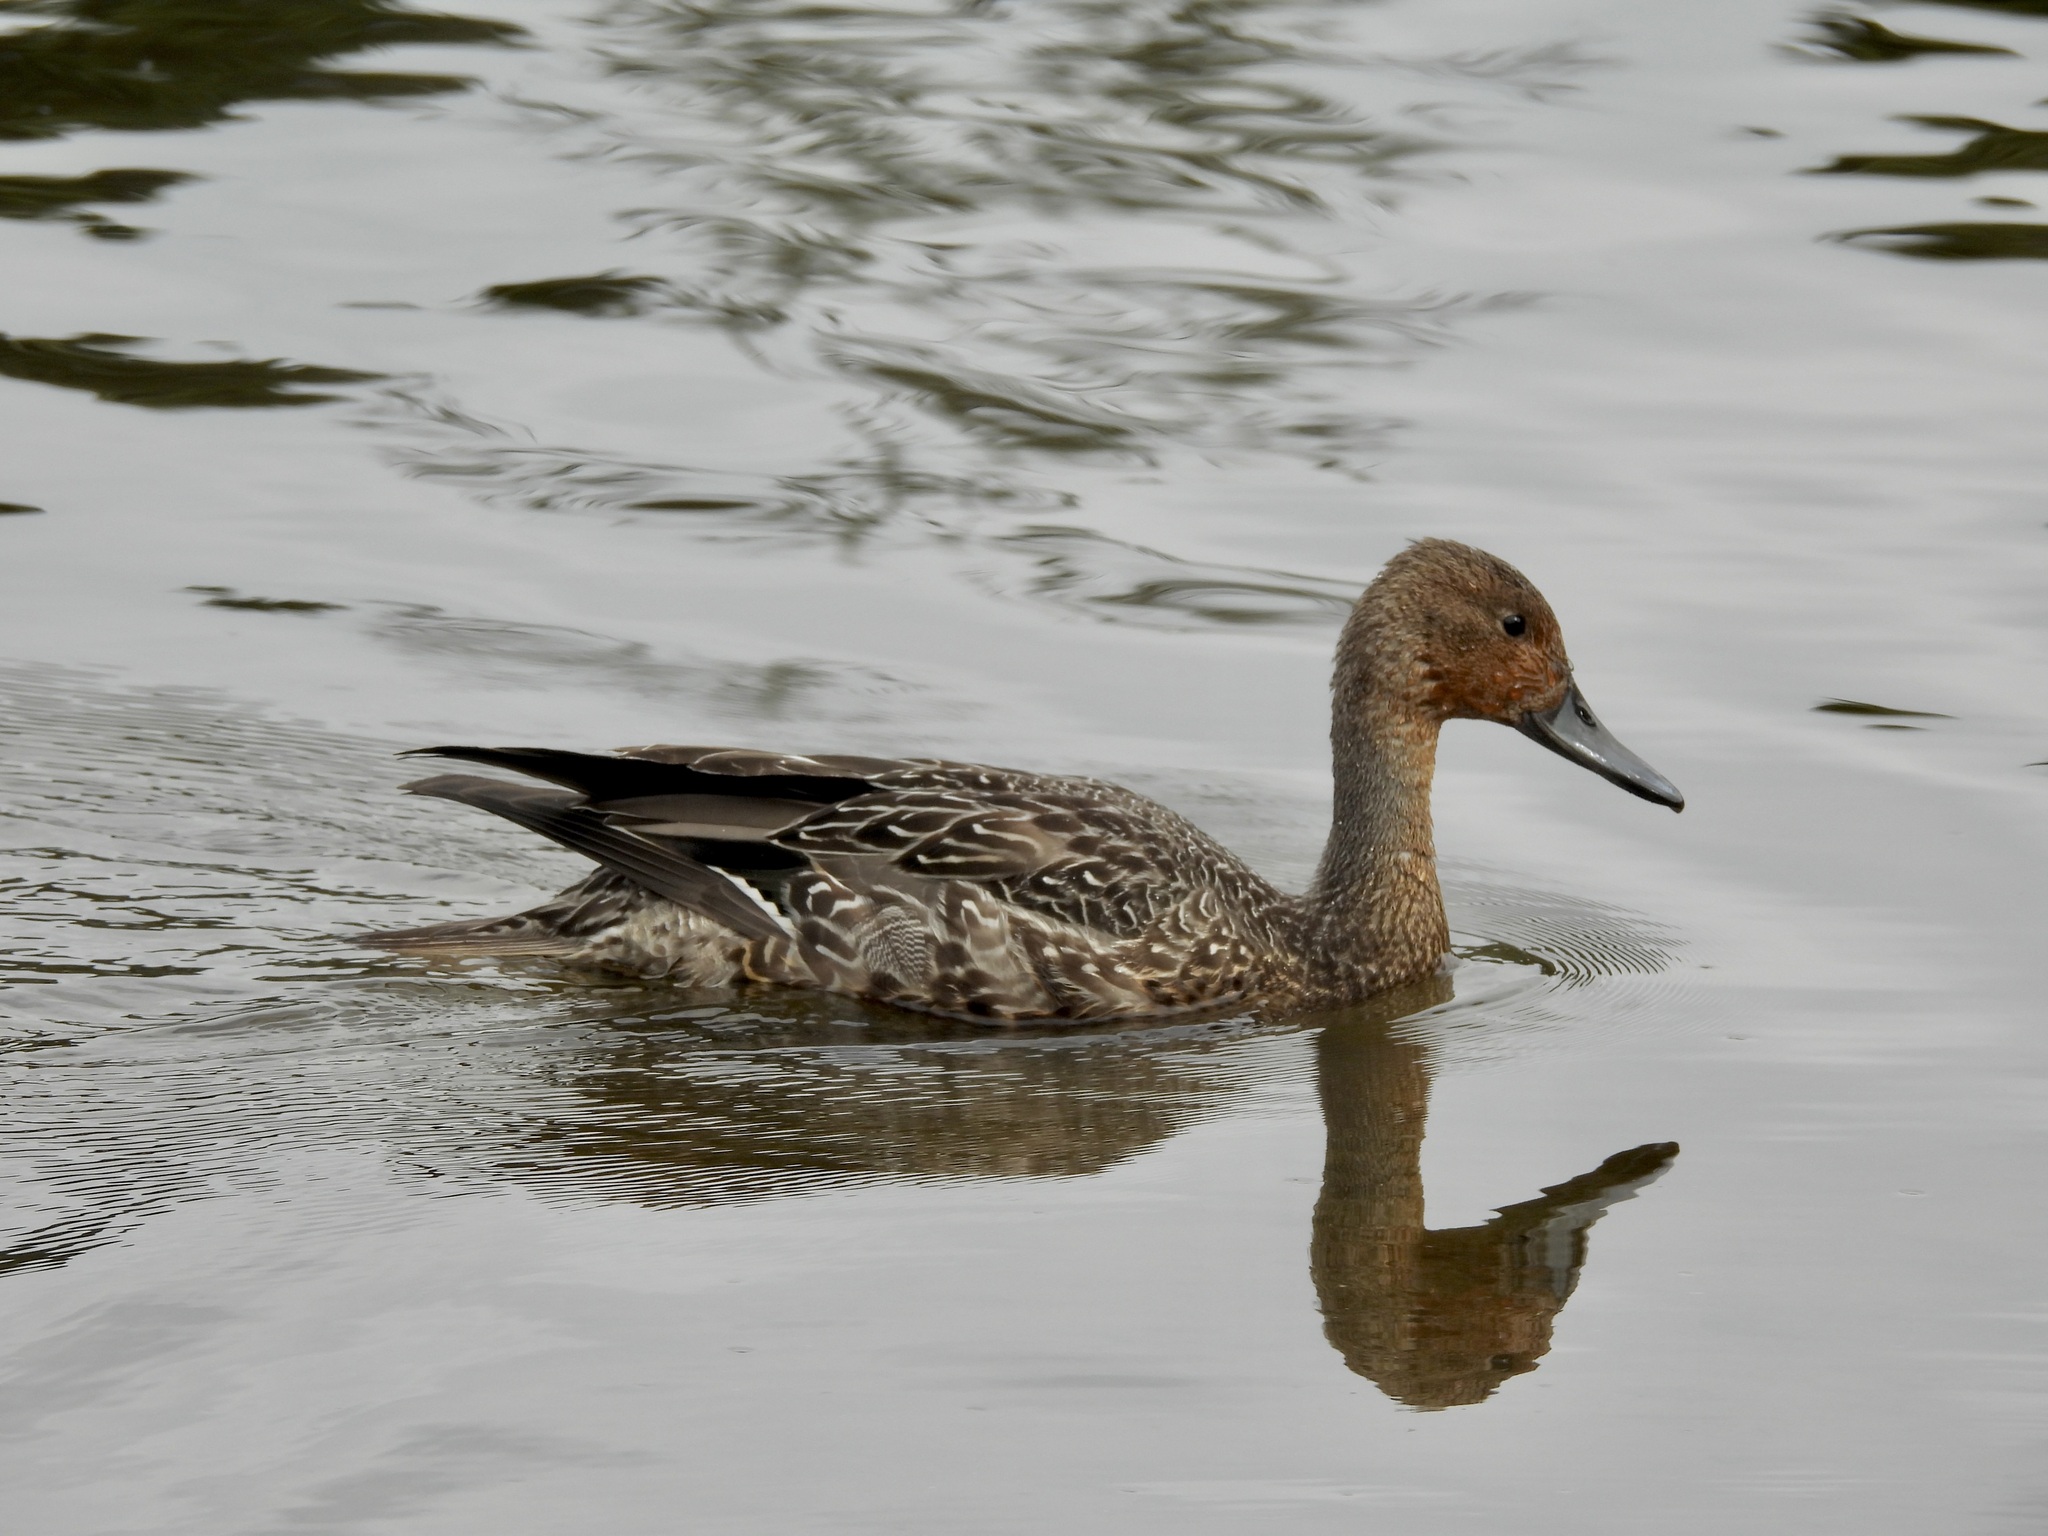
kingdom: Animalia
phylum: Chordata
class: Aves
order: Anseriformes
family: Anatidae
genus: Anas
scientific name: Anas acuta
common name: Northern pintail
